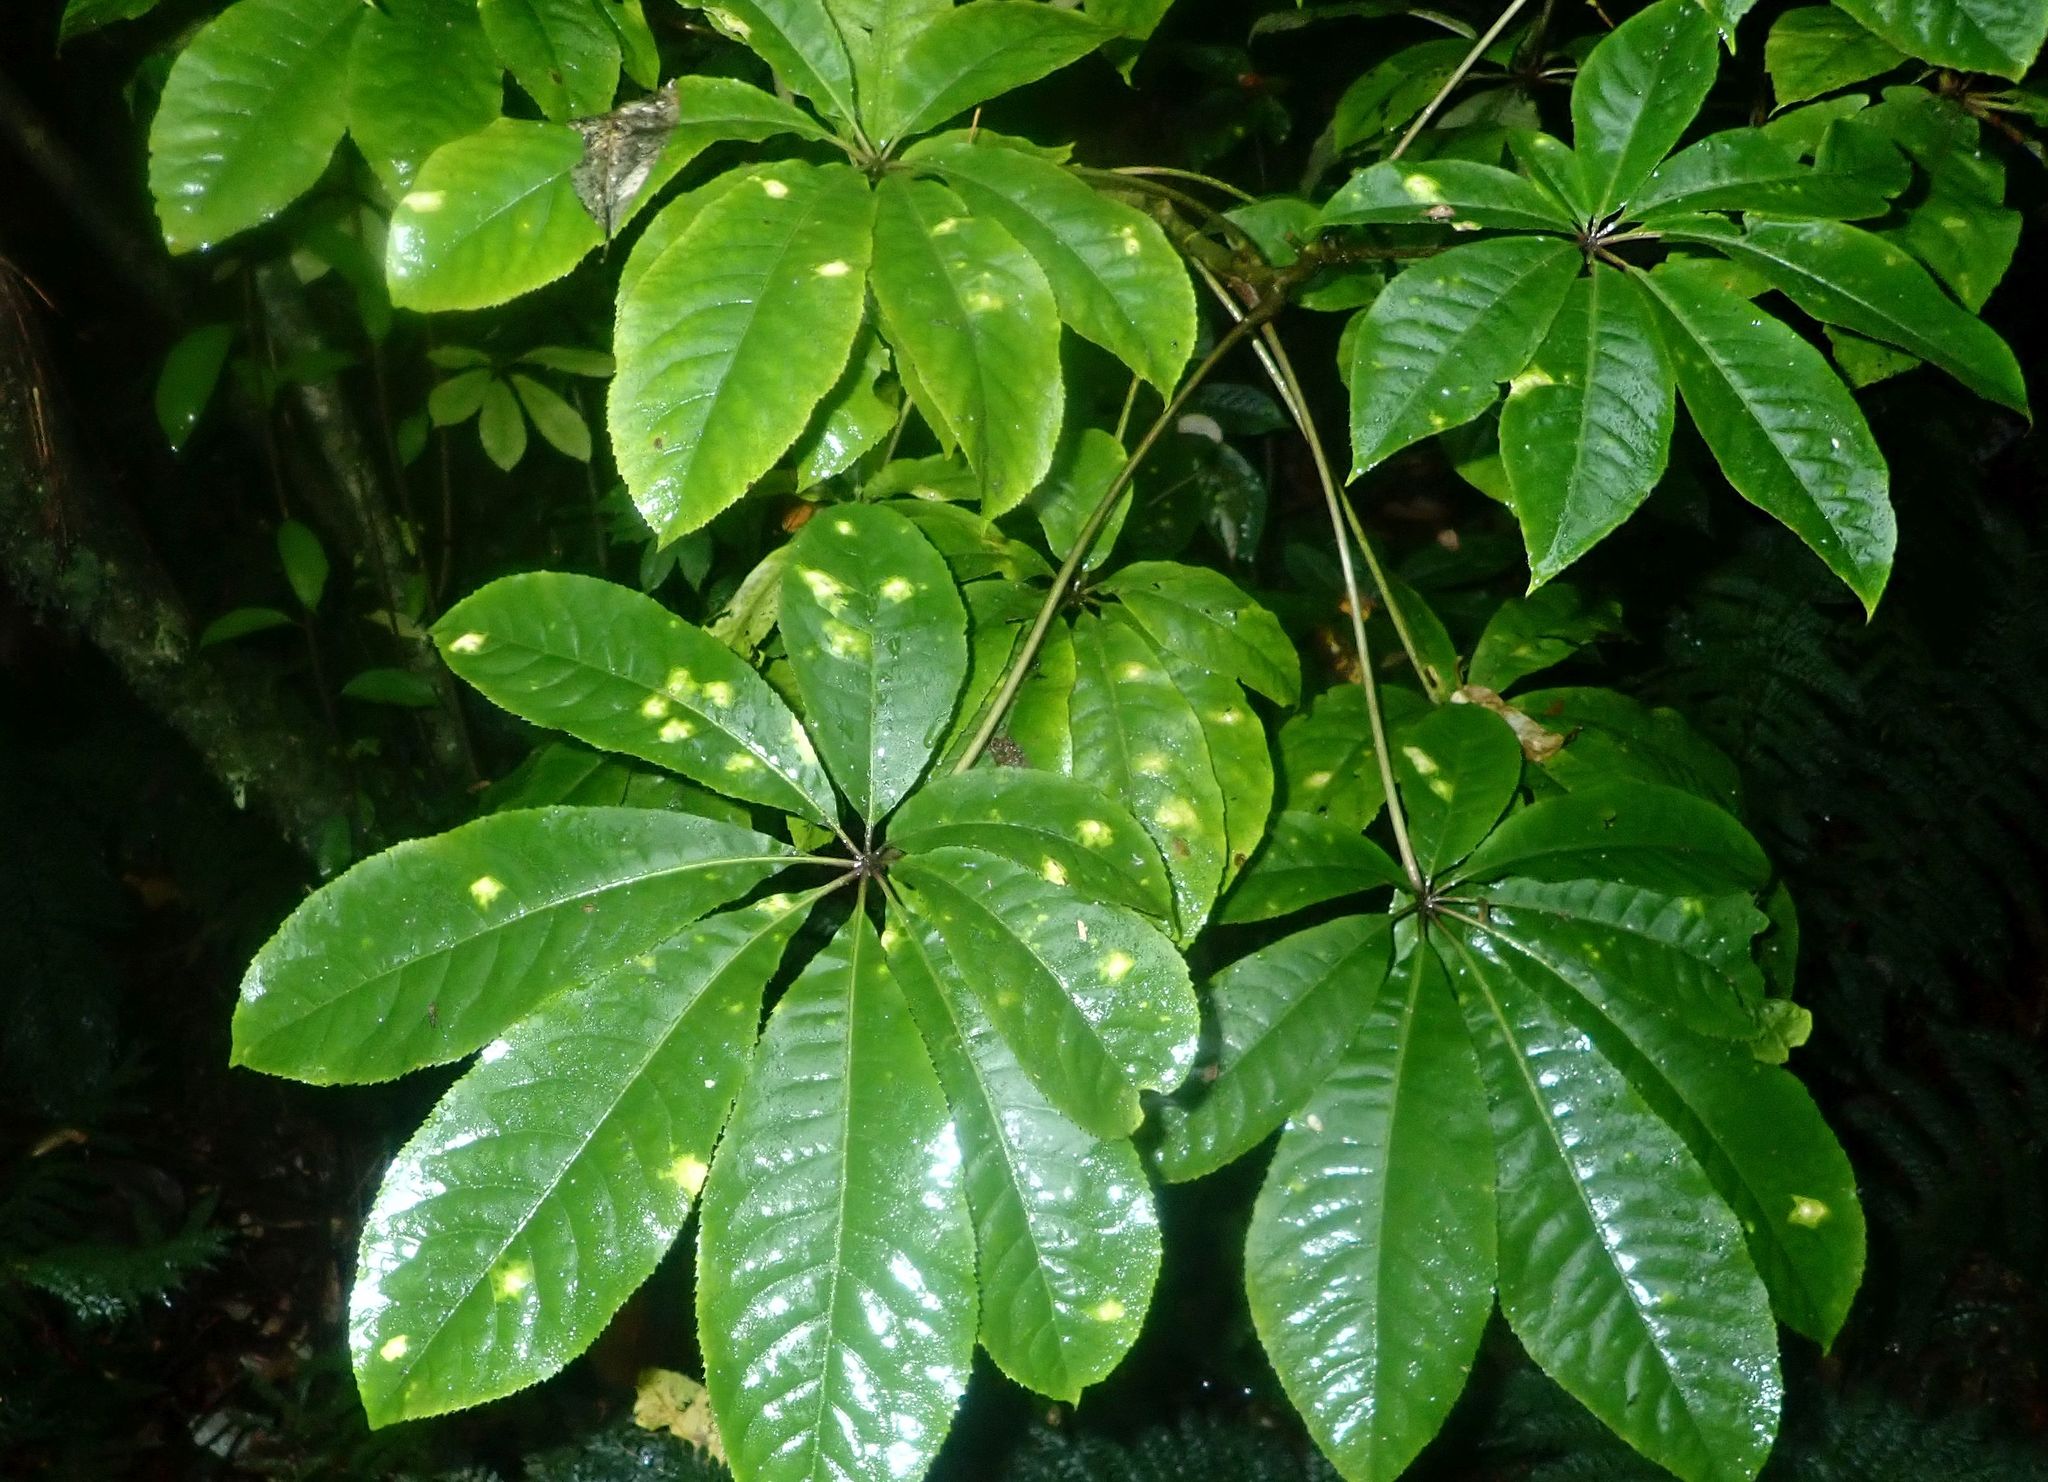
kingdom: Plantae
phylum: Tracheophyta
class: Magnoliopsida
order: Apiales
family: Araliaceae
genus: Schefflera
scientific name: Schefflera digitata
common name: Pate
